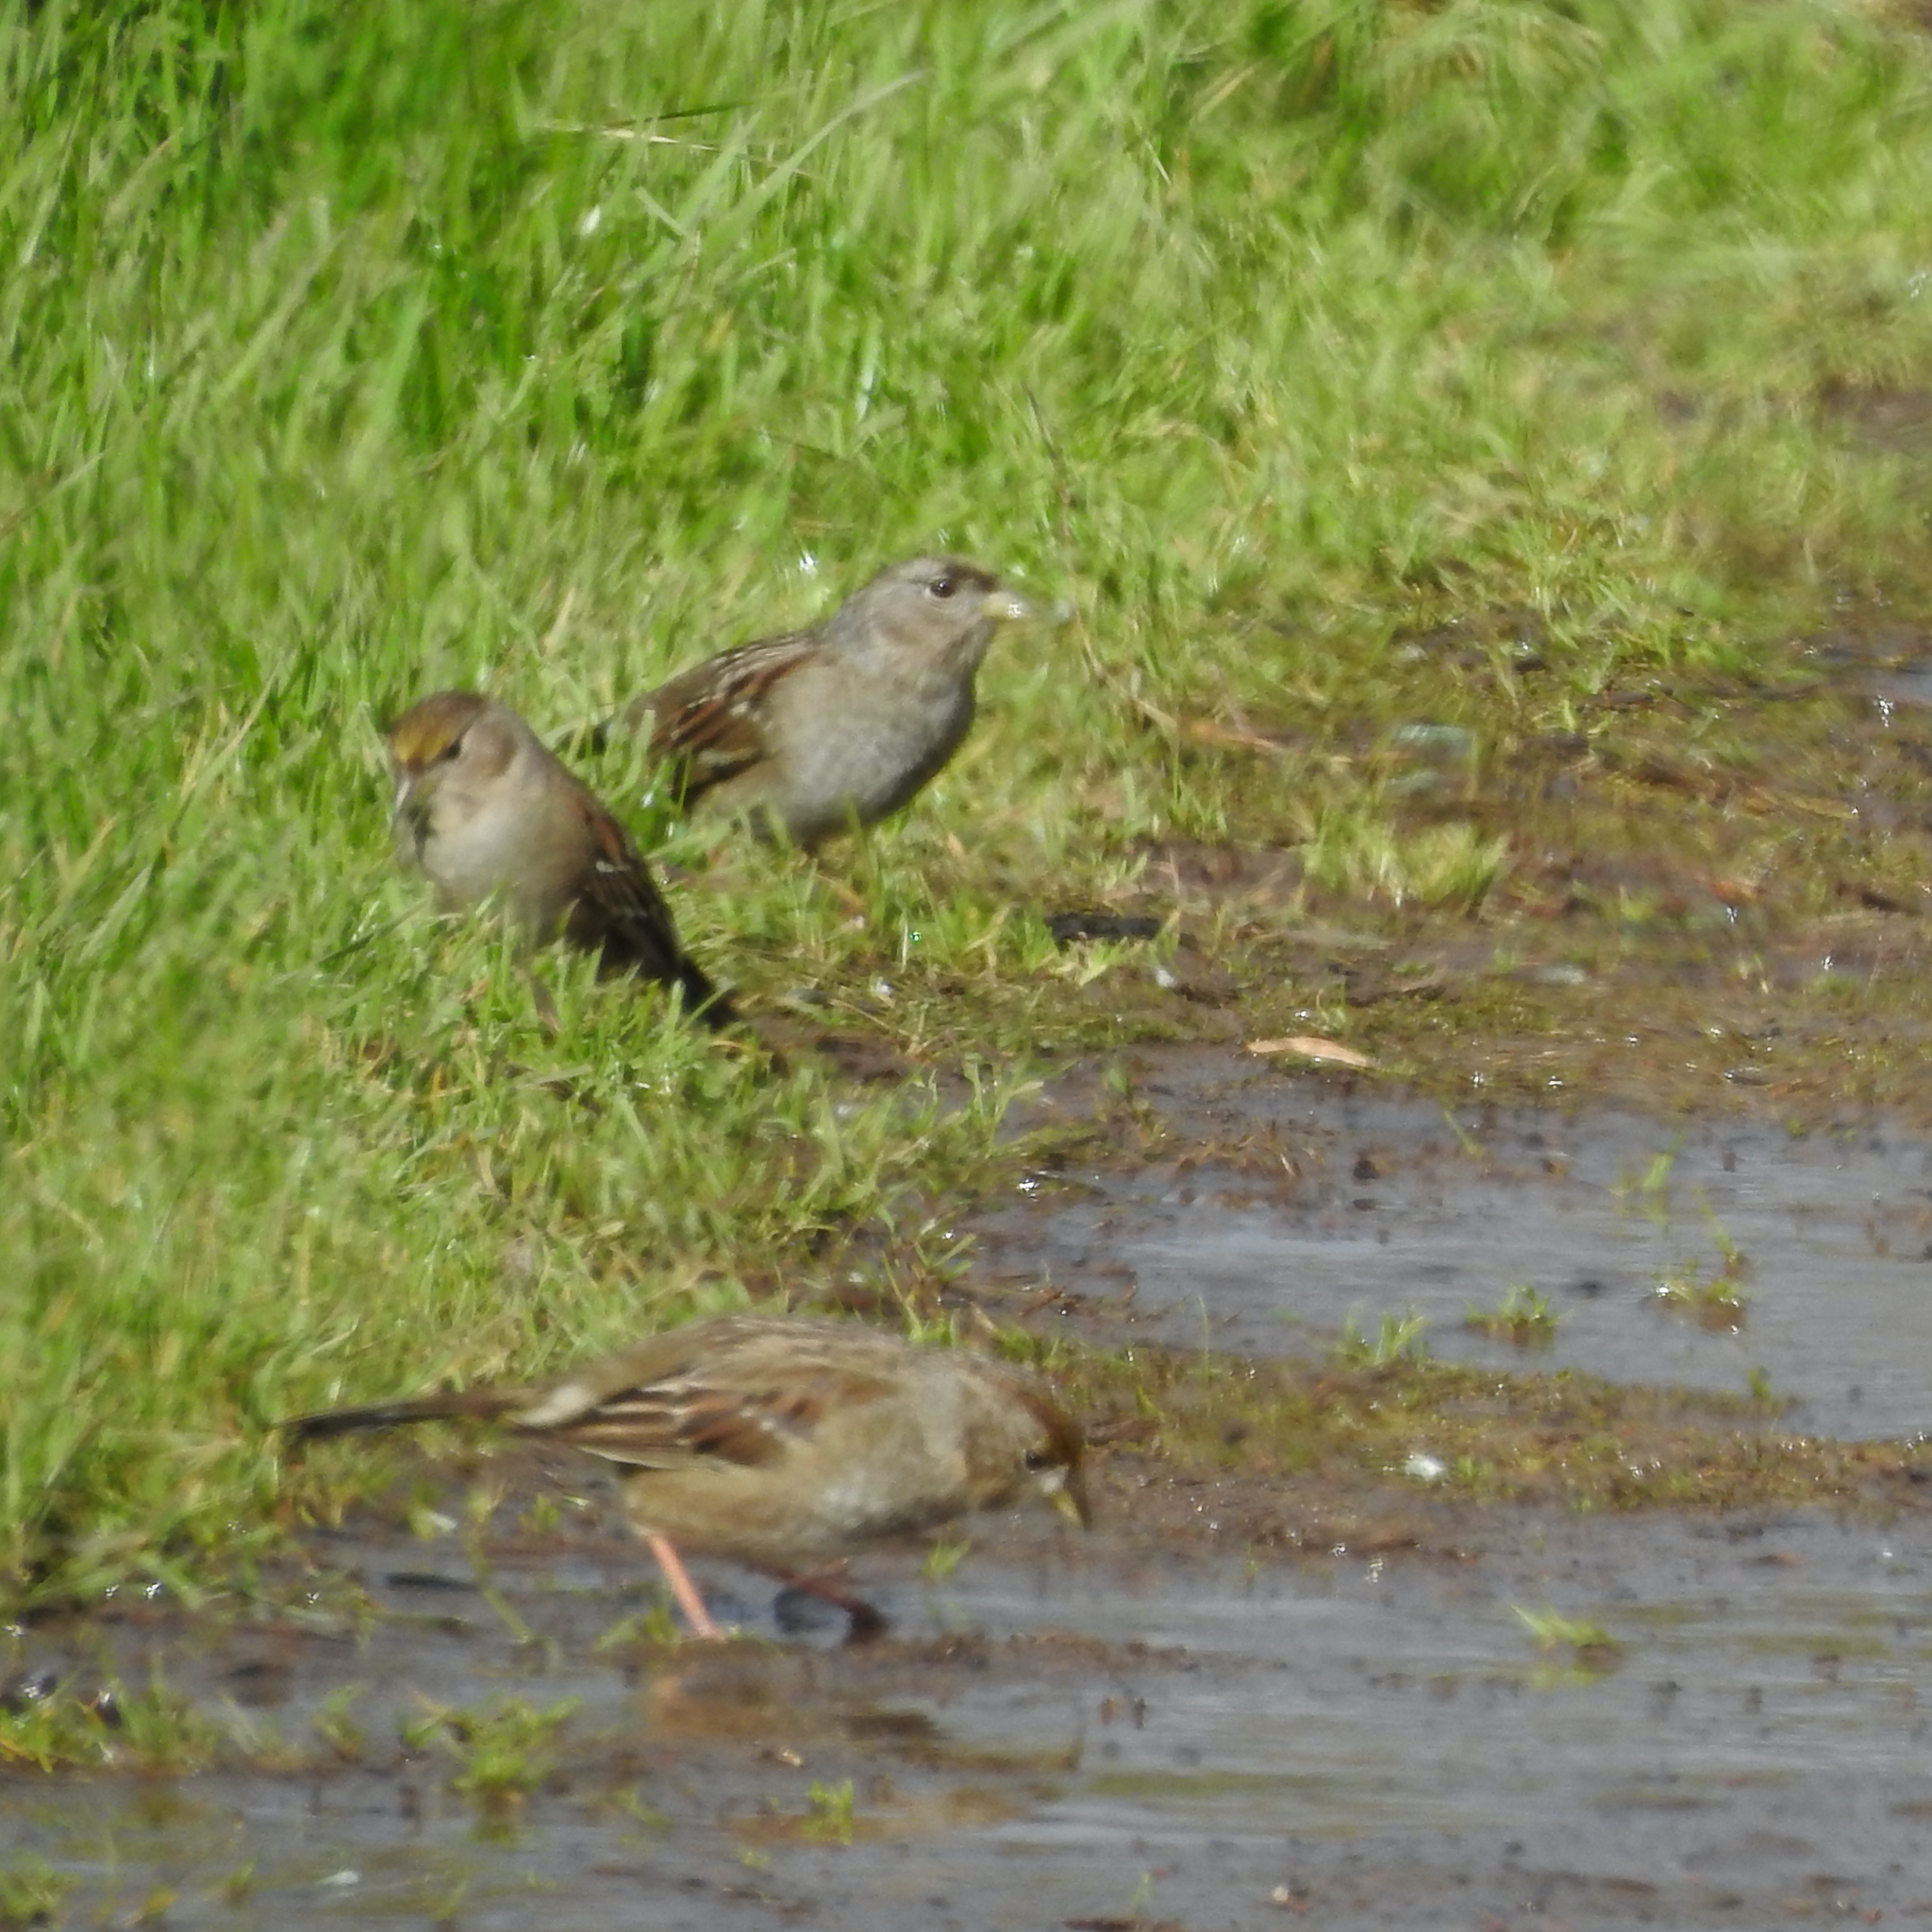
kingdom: Animalia
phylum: Chordata
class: Aves
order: Passeriformes
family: Passerellidae
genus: Zonotrichia
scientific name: Zonotrichia atricapilla
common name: Golden-crowned sparrow
